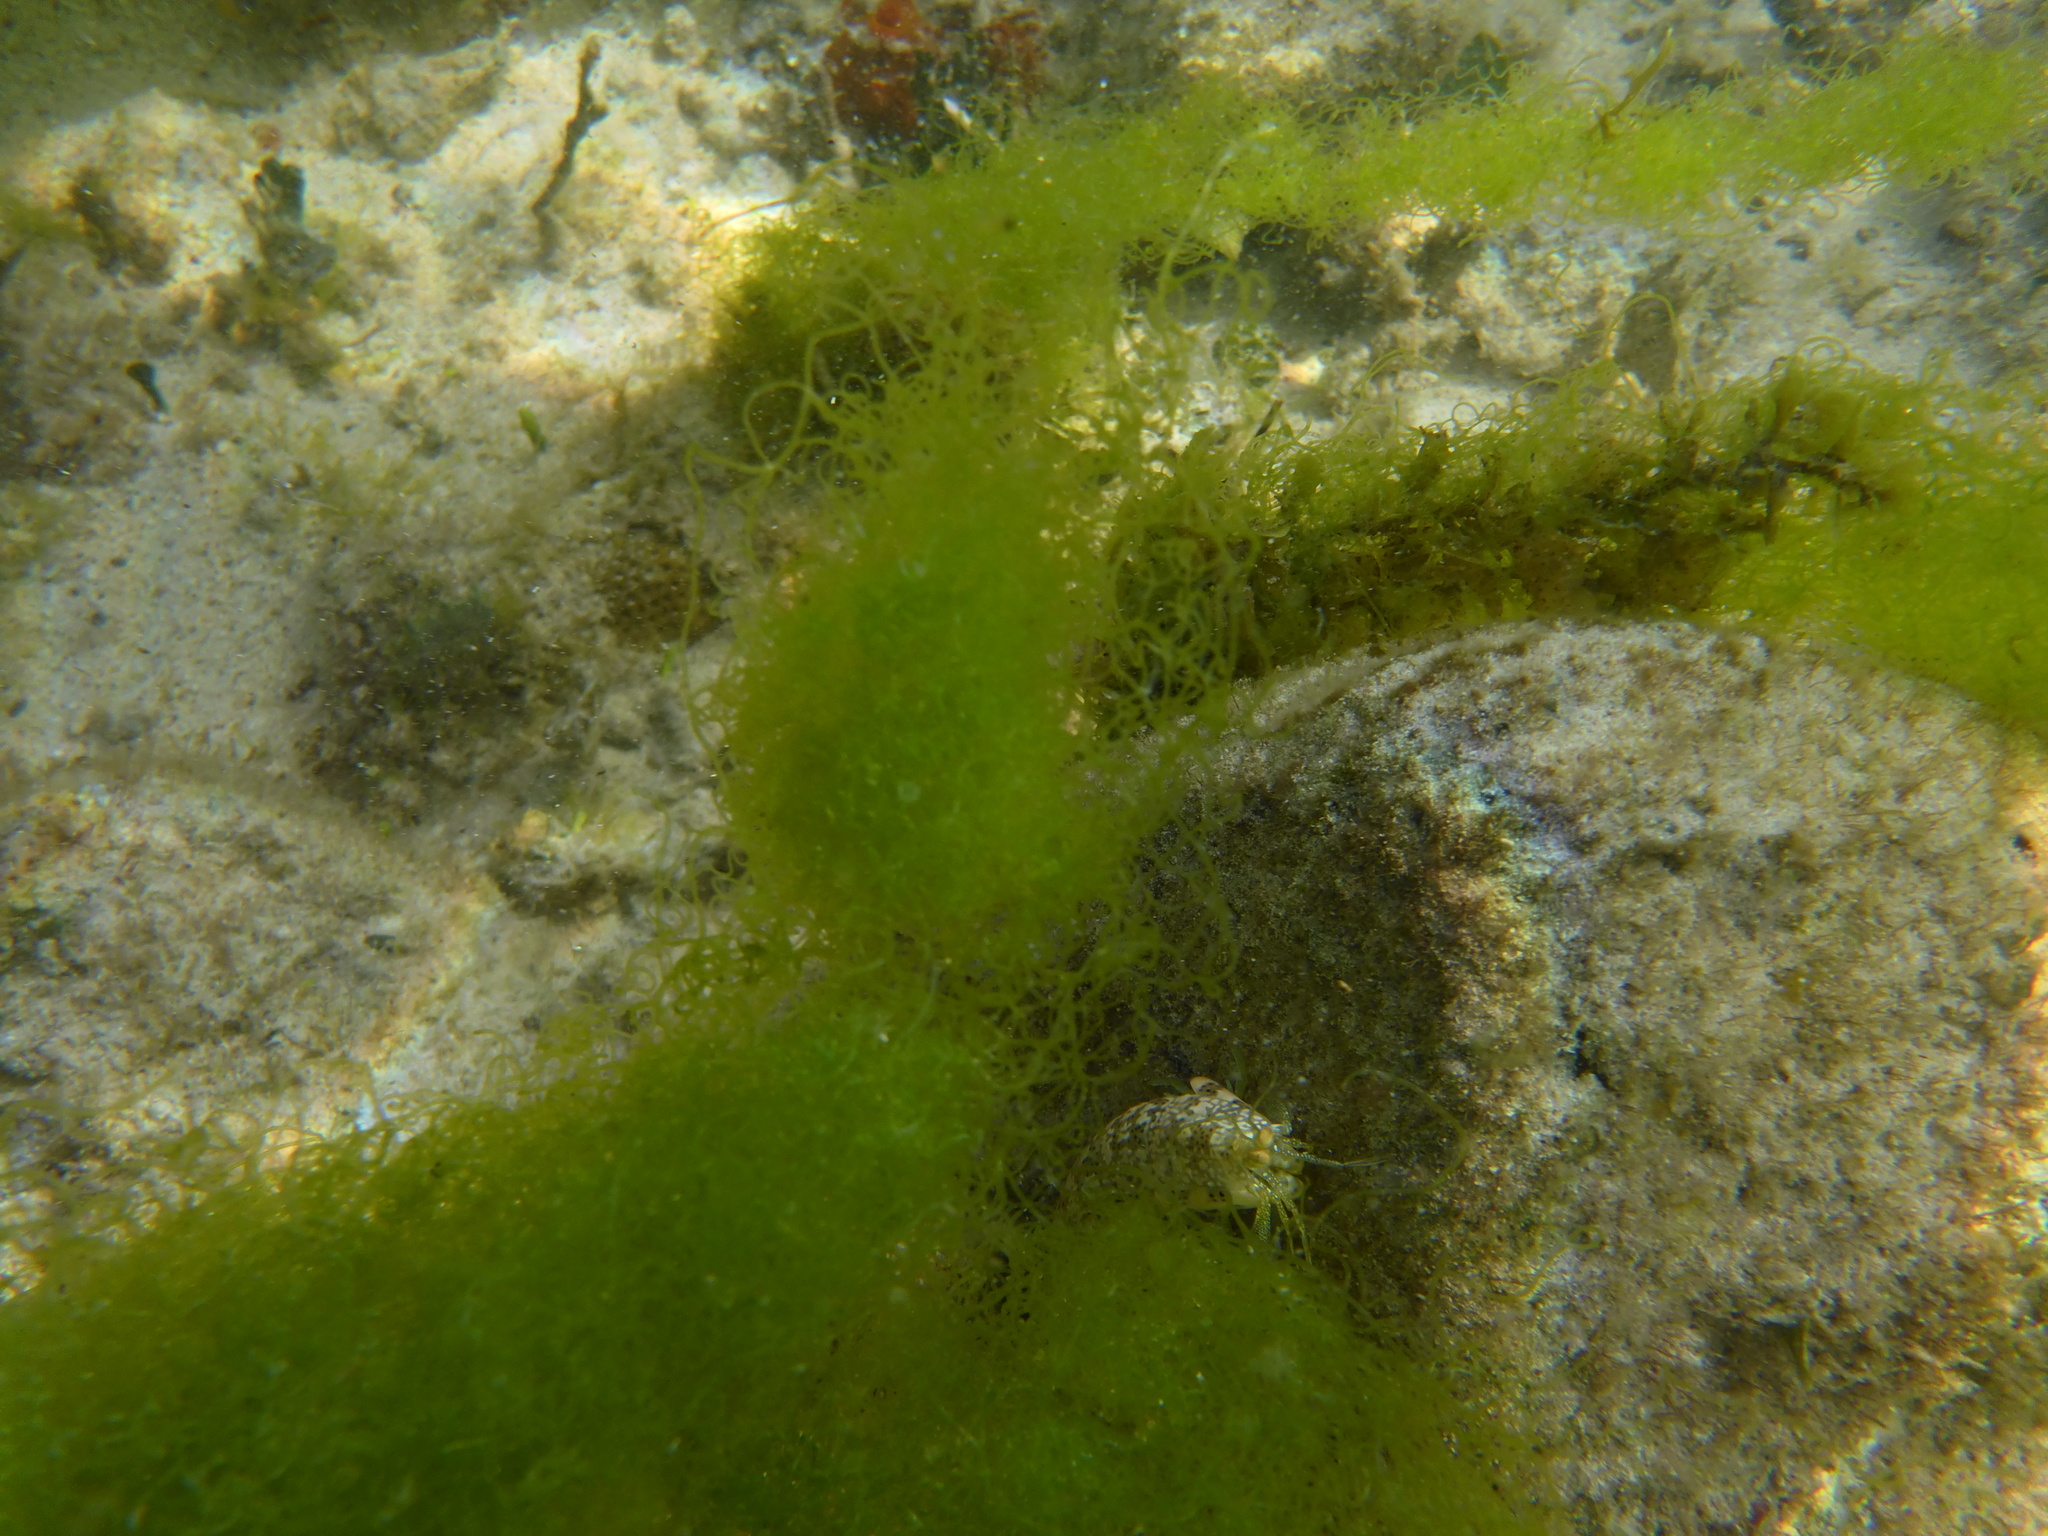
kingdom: Animalia
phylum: Arthropoda
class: Malacostraca
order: Stomatopoda
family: Gonodactylidae
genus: Neogonodactylus
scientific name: Neogonodactylus oerstedii
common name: Swollen-claw squilla
